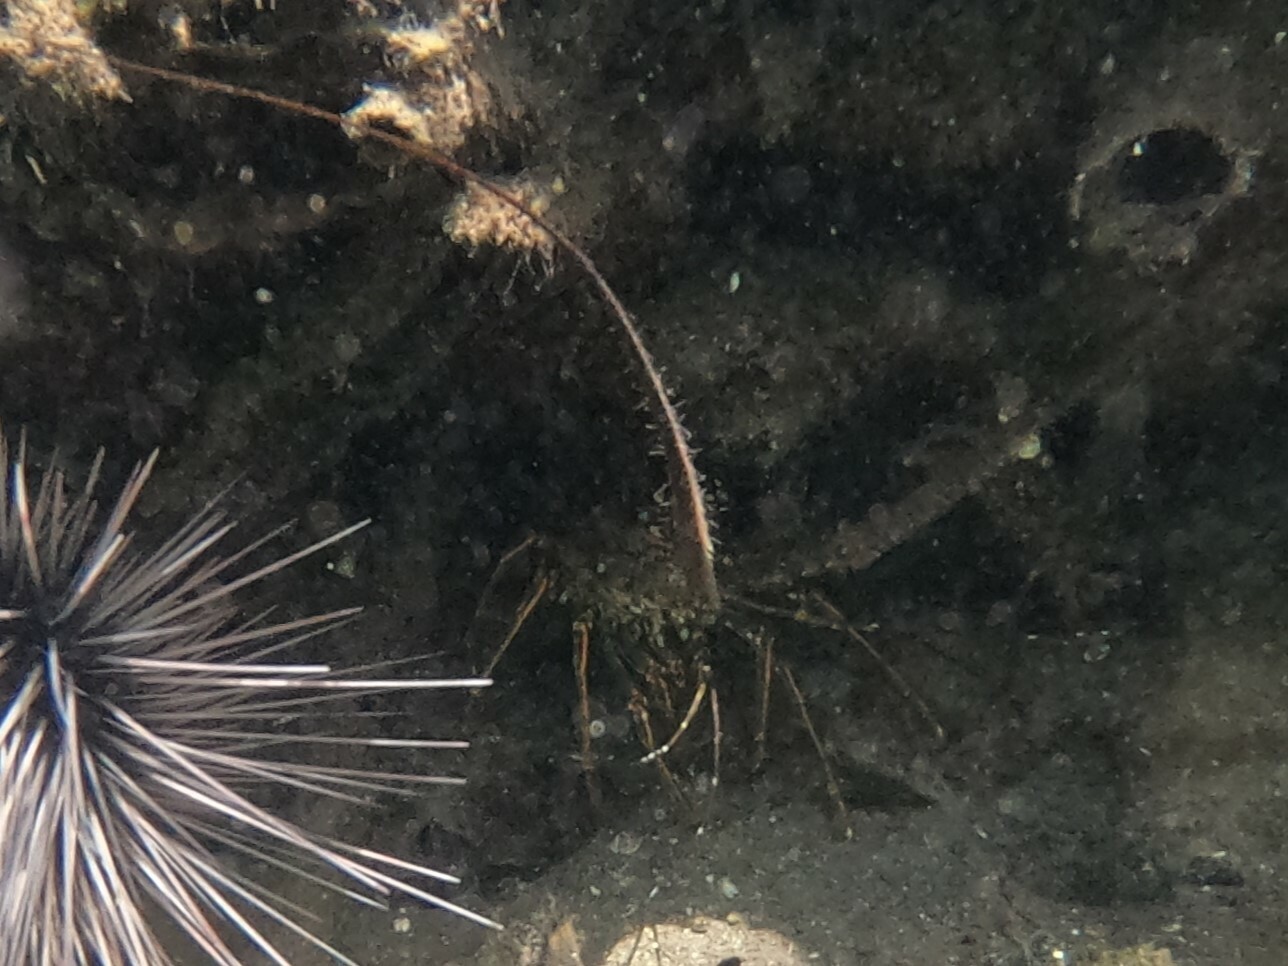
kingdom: Animalia
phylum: Arthropoda
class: Malacostraca
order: Decapoda
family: Palinuridae
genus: Panulirus
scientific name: Panulirus argus
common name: Caribbean spiny lobster
